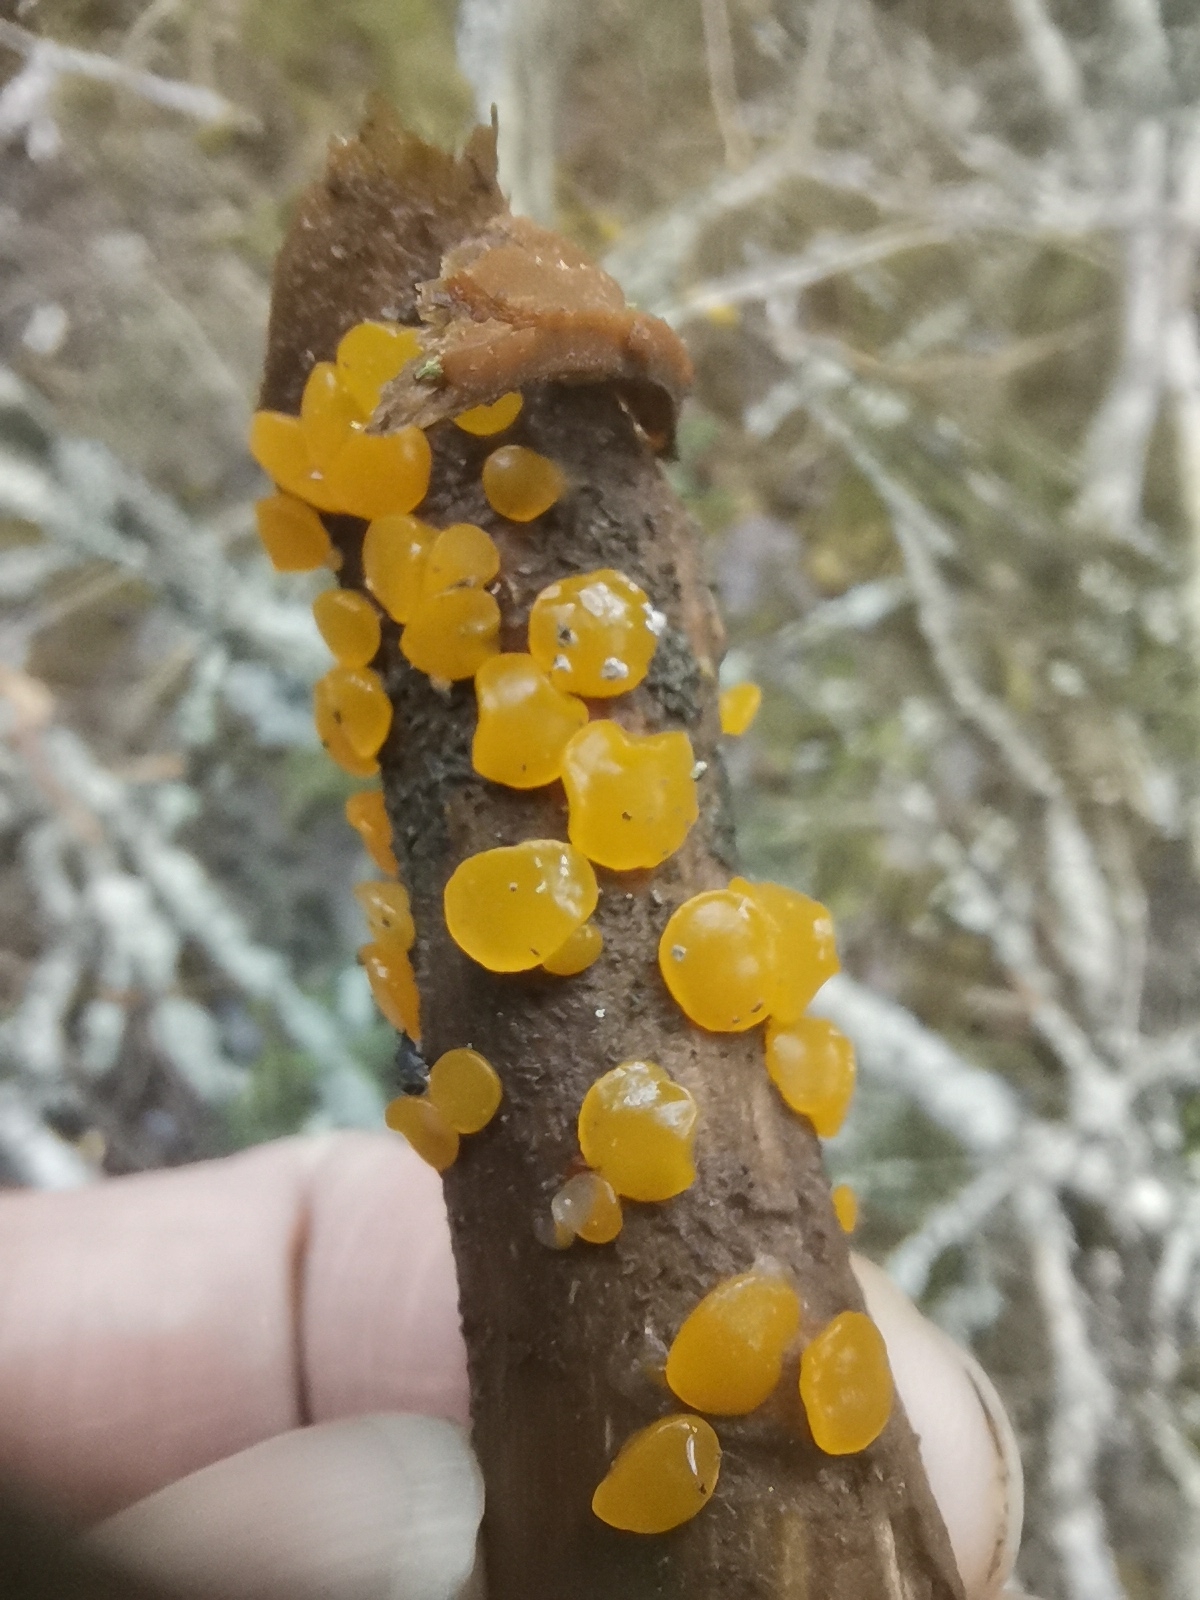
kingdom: Fungi
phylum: Basidiomycota
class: Dacrymycetes
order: Dacrymycetales
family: Dacrymycetaceae
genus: Guepiniopsis
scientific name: Guepiniopsis alpina
